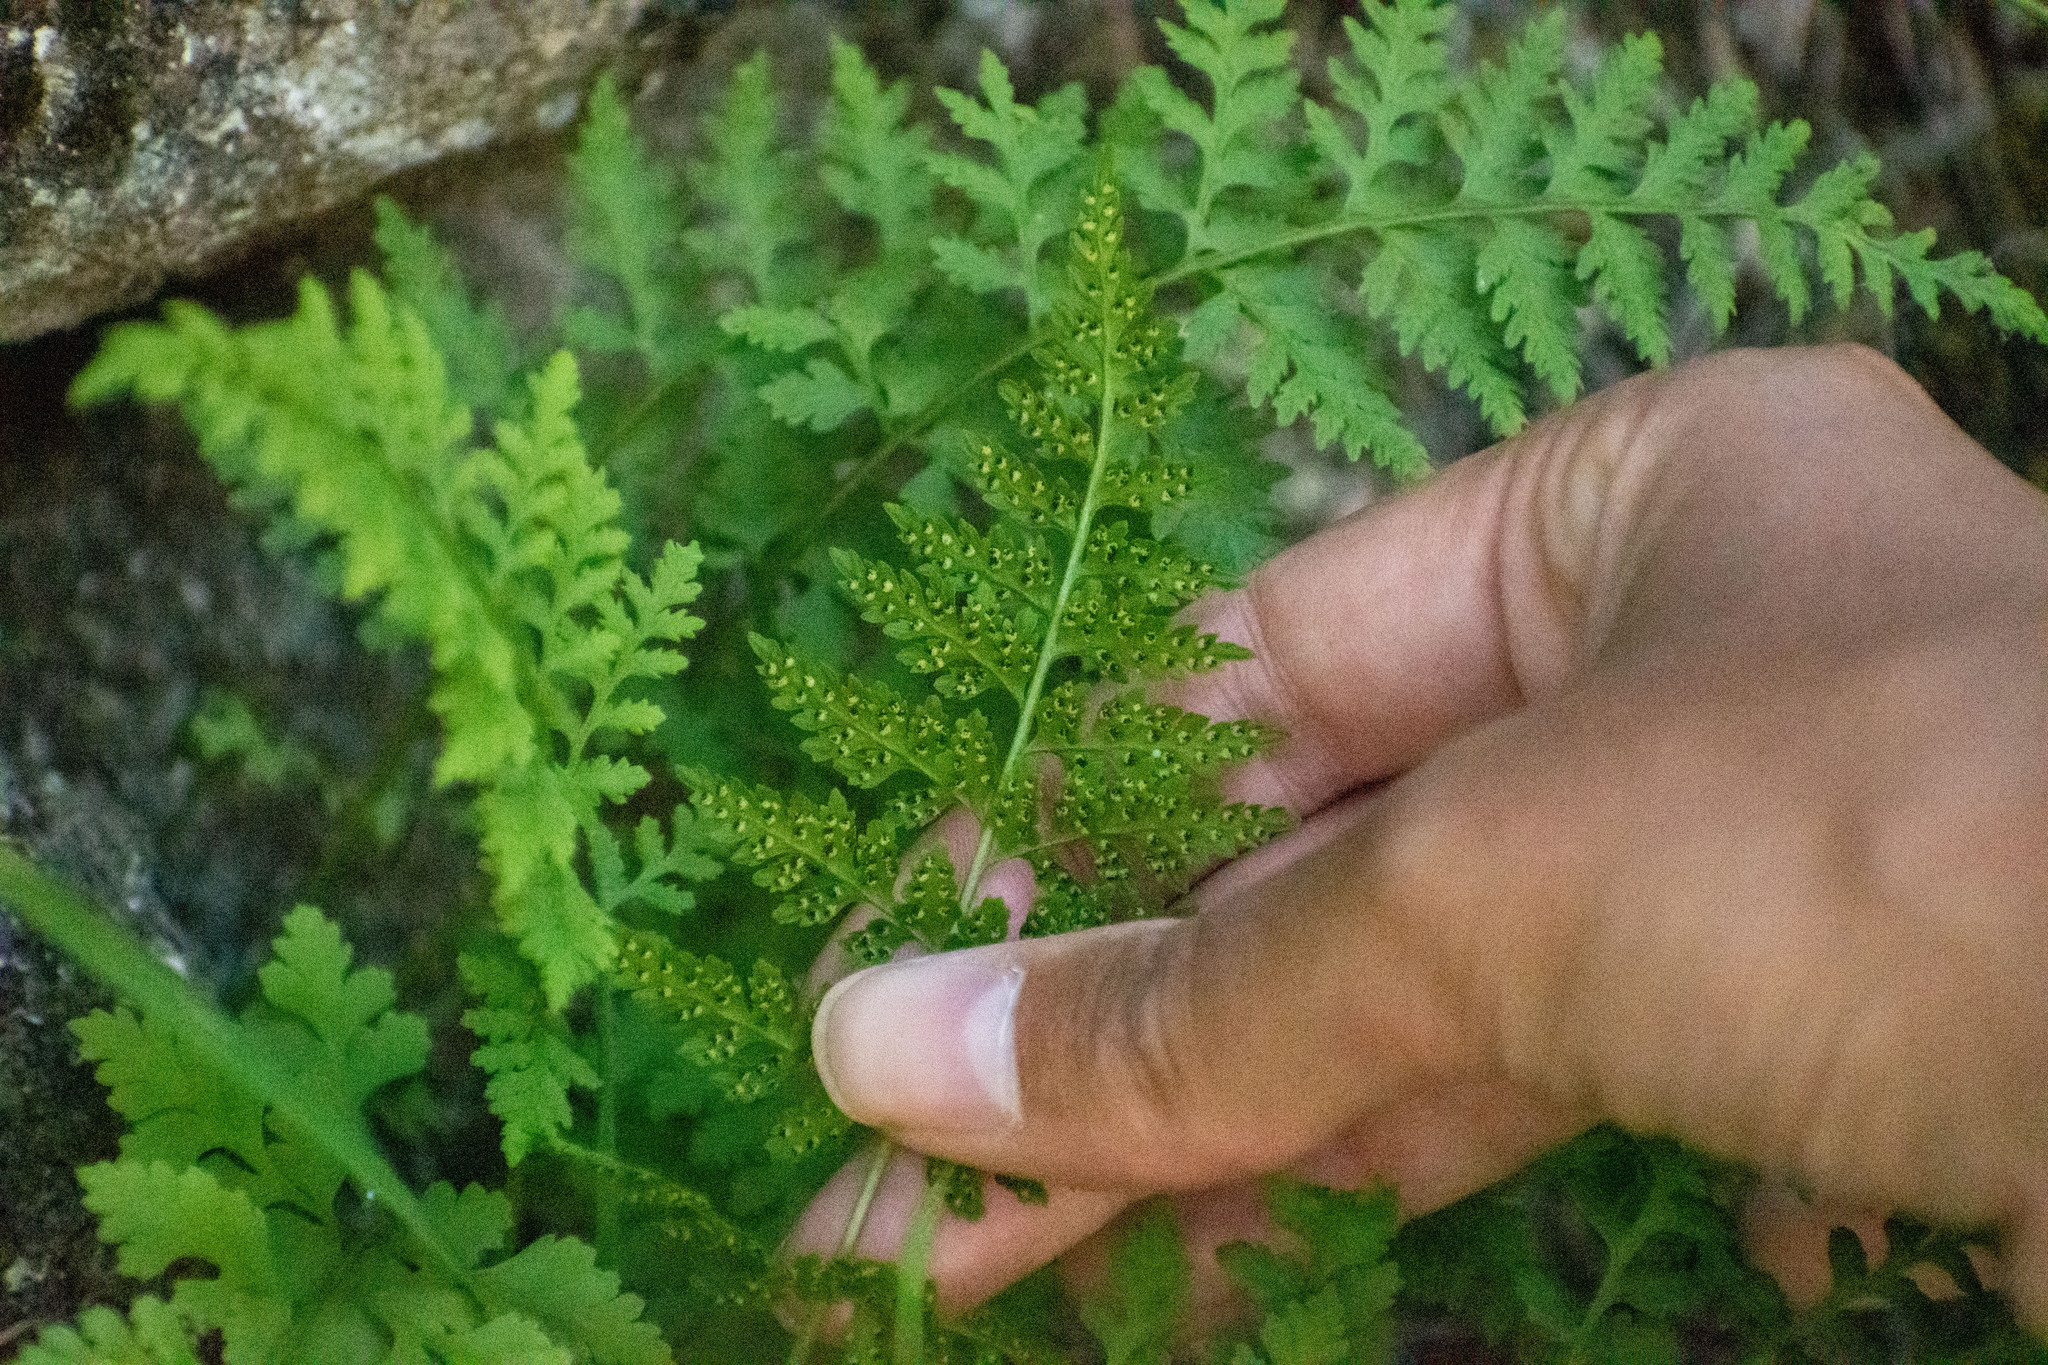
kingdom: Plantae
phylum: Tracheophyta
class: Polypodiopsida
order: Polypodiales
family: Cystopteridaceae
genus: Cystopteris
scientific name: Cystopteris fragilis
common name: Brittle bladder fern
